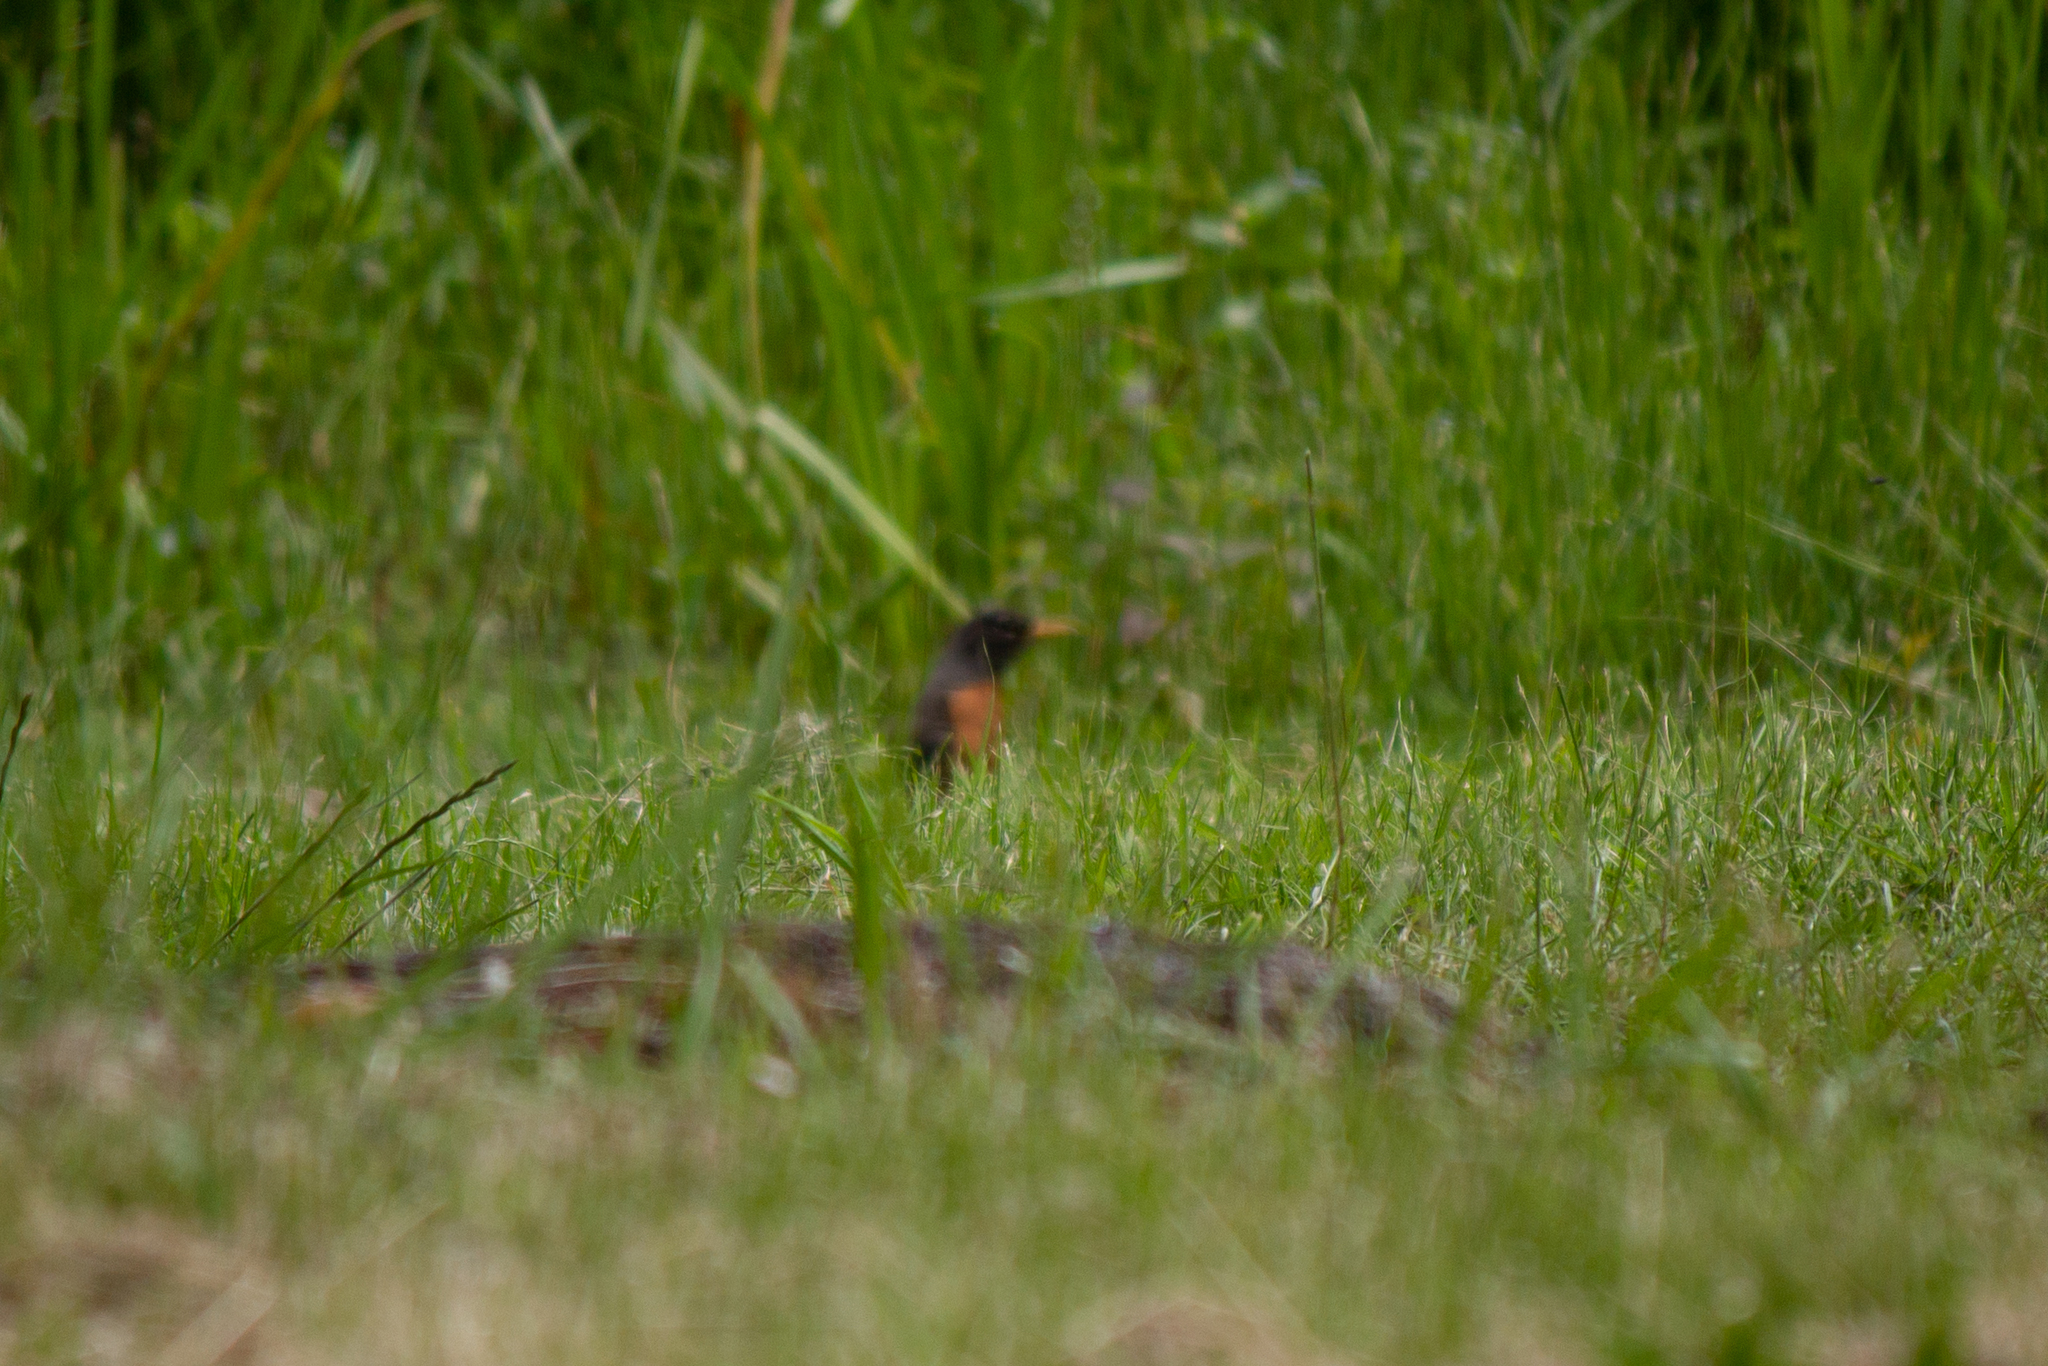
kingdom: Animalia
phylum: Chordata
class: Aves
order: Passeriformes
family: Turdidae
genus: Turdus
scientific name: Turdus migratorius
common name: American robin
